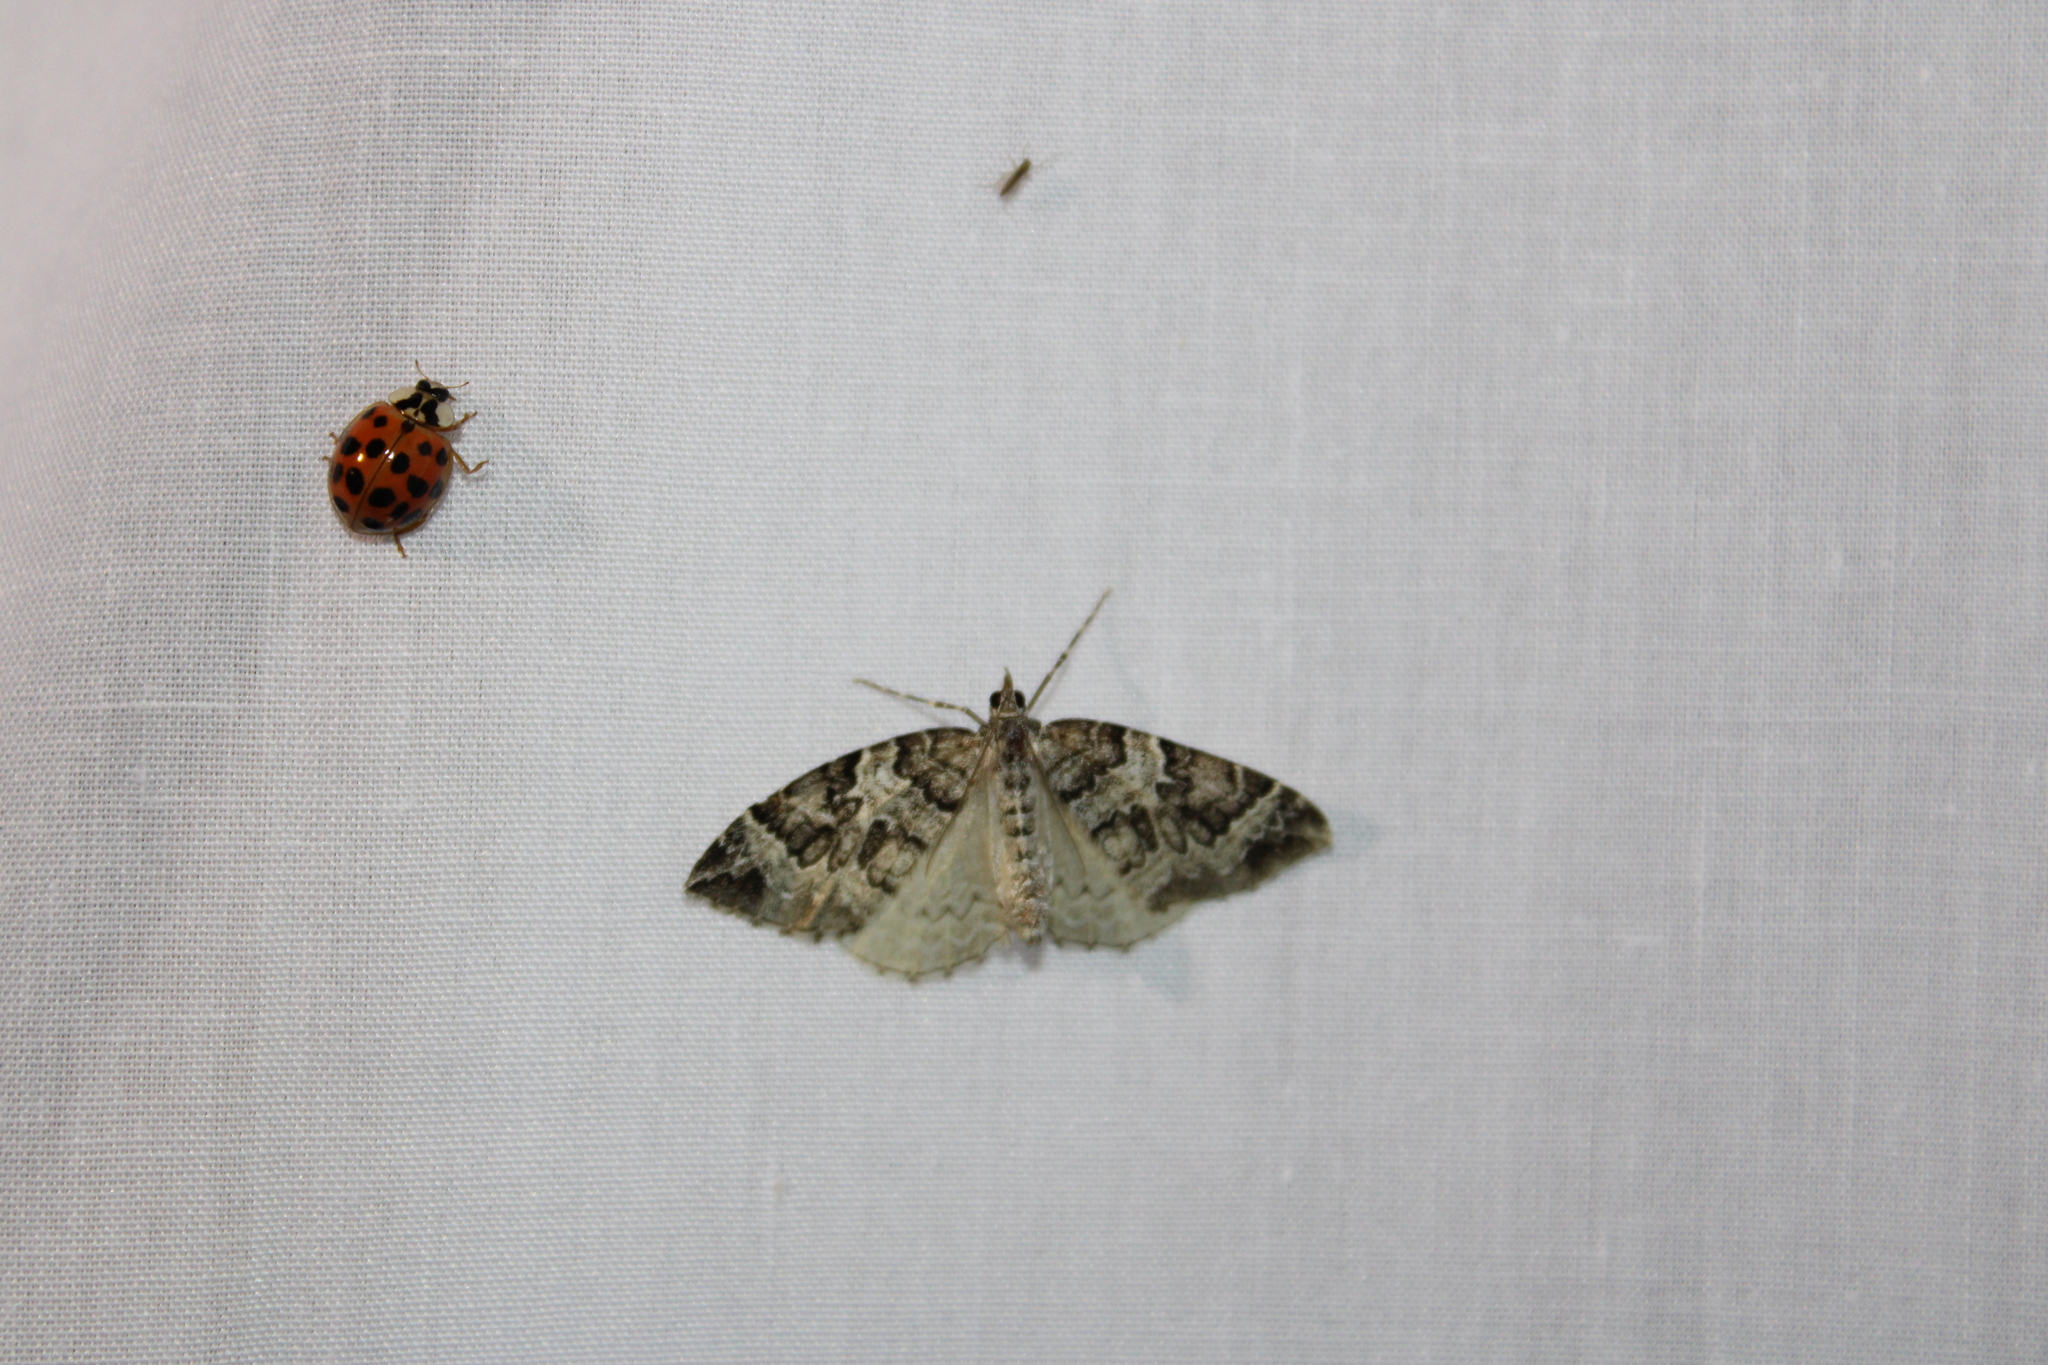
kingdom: Animalia
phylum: Arthropoda
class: Insecta
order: Lepidoptera
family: Geometridae
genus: Eulithis
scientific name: Eulithis explanata
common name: White eulithis
